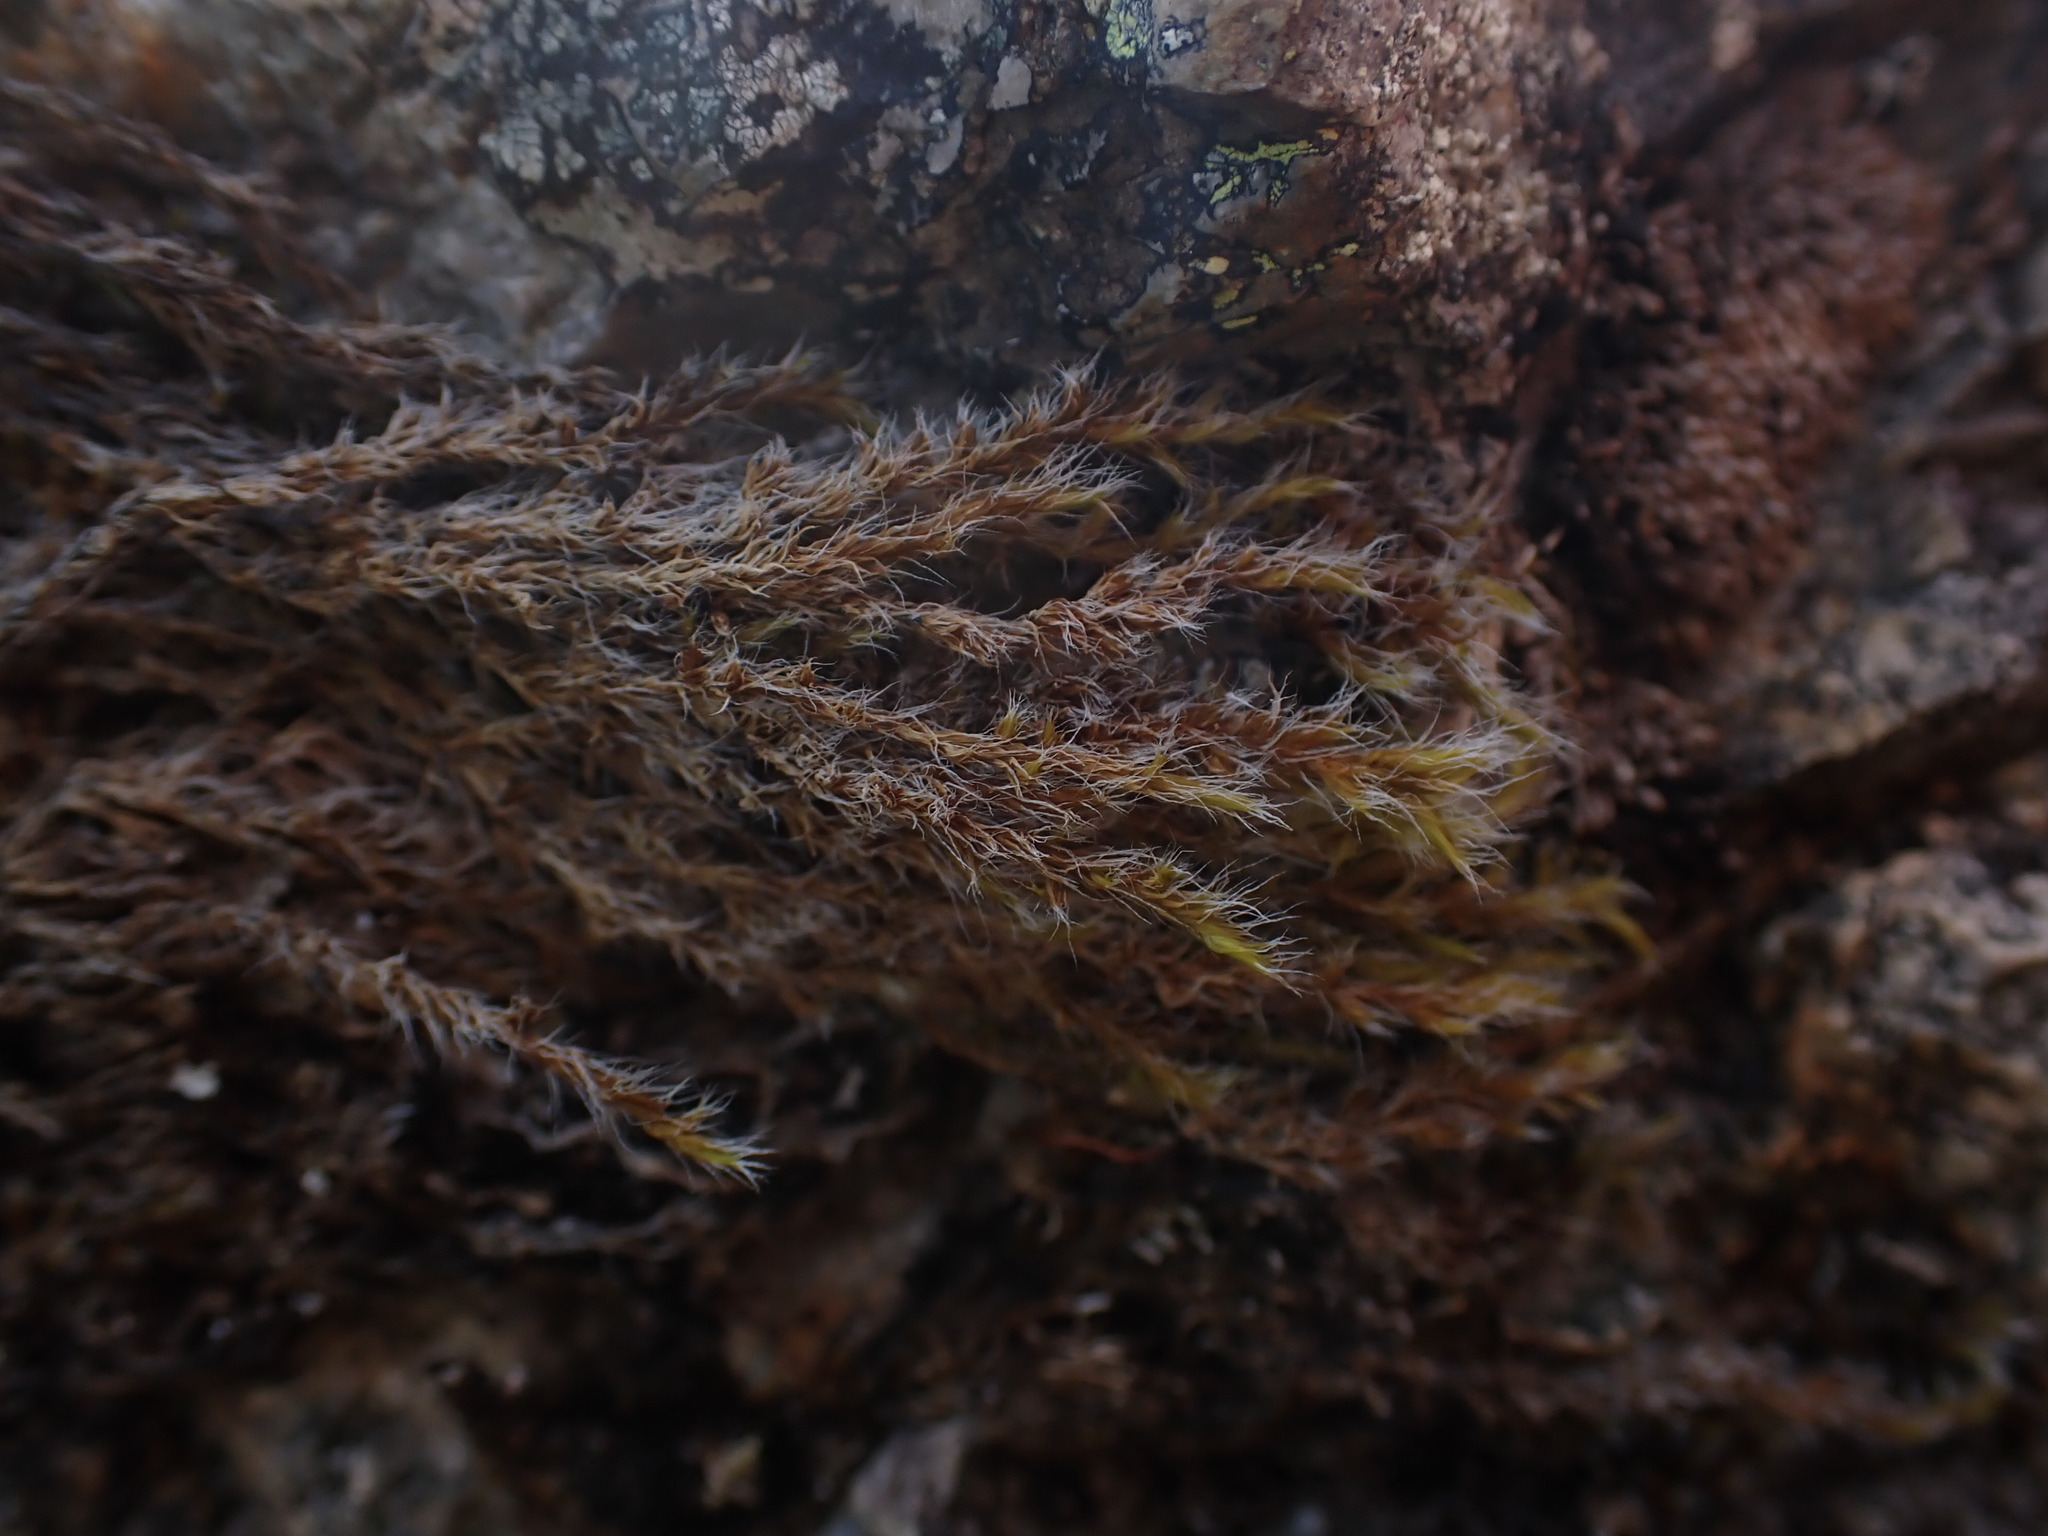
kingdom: Plantae
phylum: Bryophyta
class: Bryopsida
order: Grimmiales
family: Grimmiaceae
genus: Bucklandiella
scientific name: Bucklandiella heterosticha
